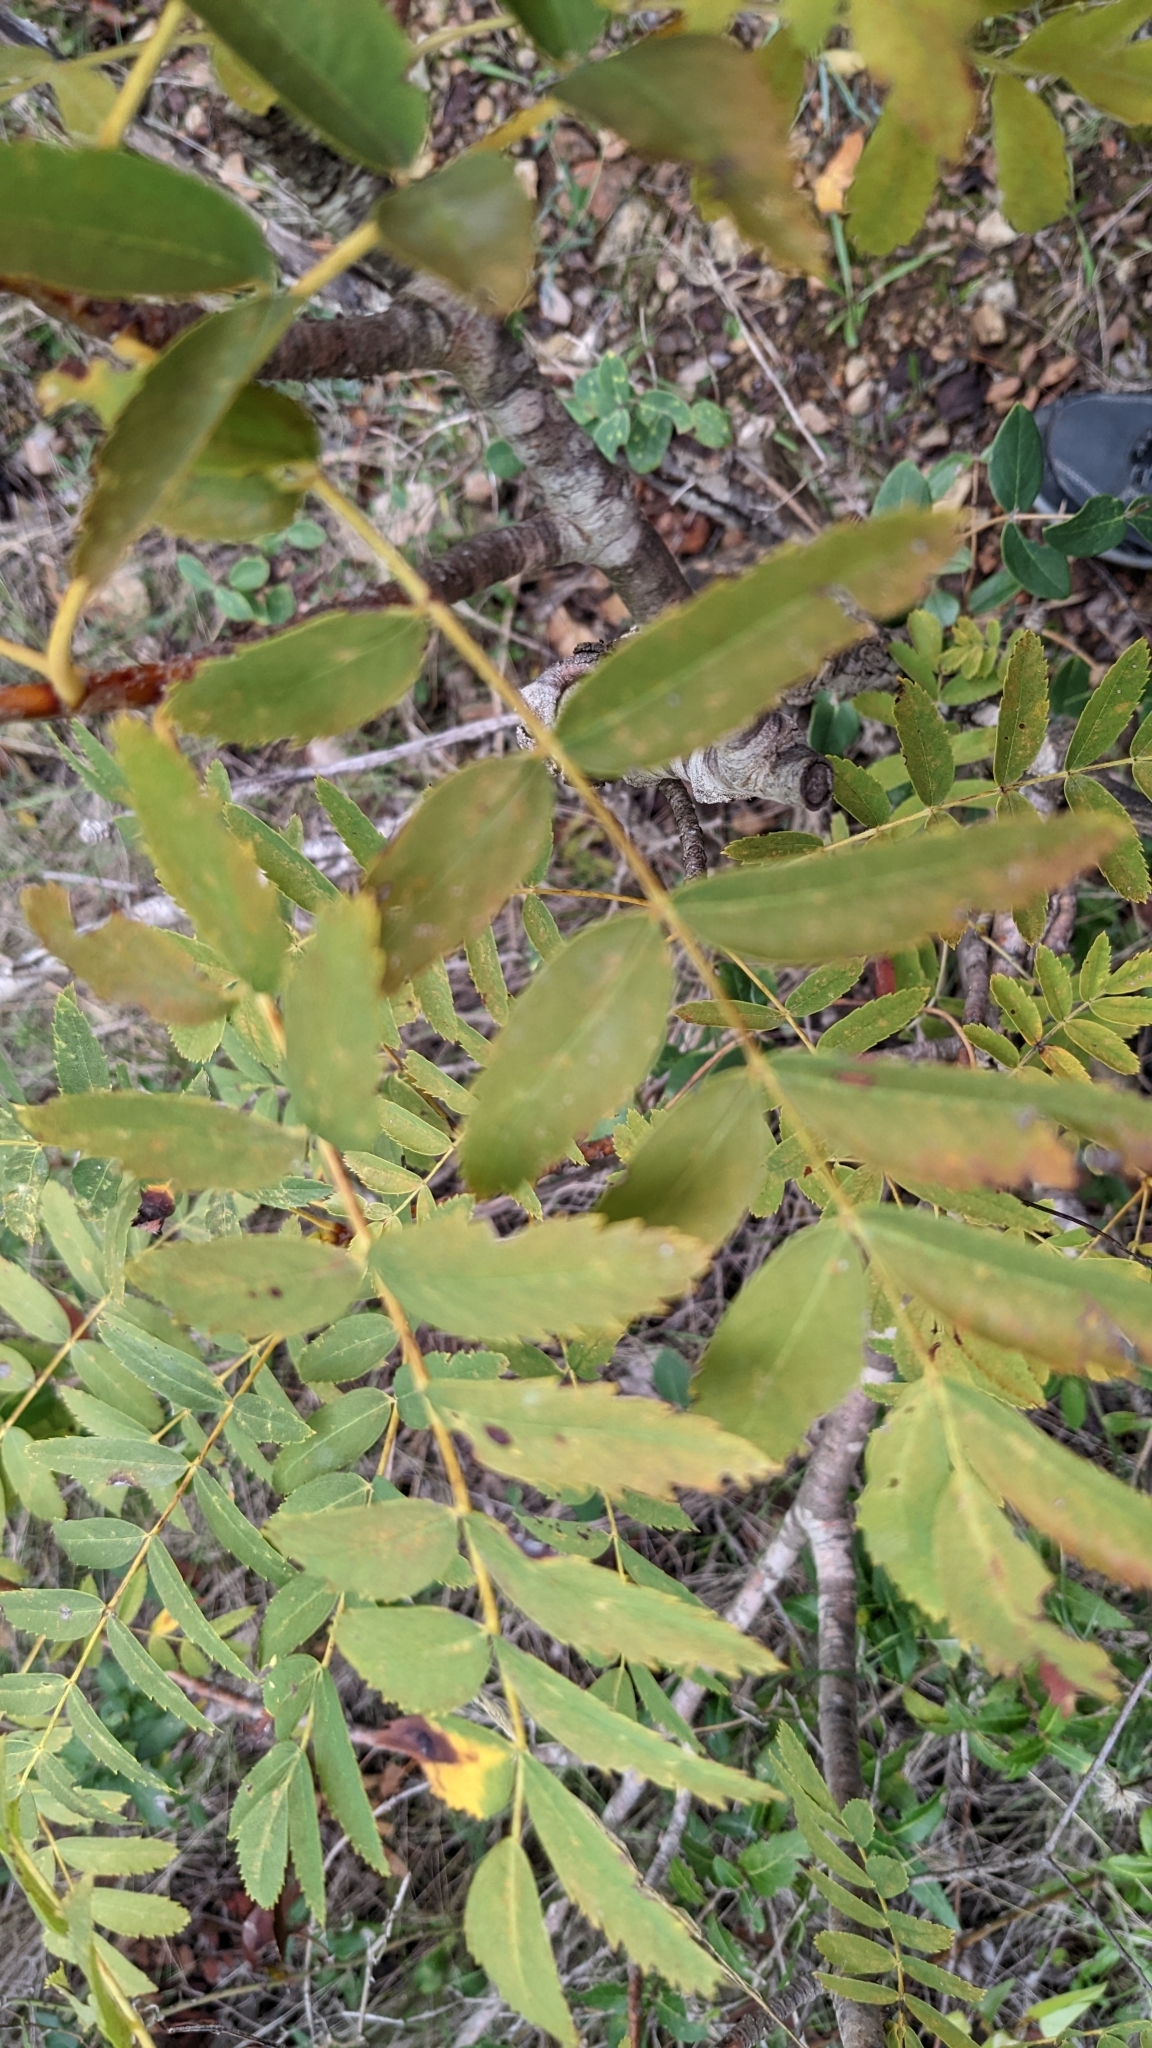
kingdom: Plantae
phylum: Tracheophyta
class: Magnoliopsida
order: Rosales
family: Rosaceae
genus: Cormus
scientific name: Cormus domestica
